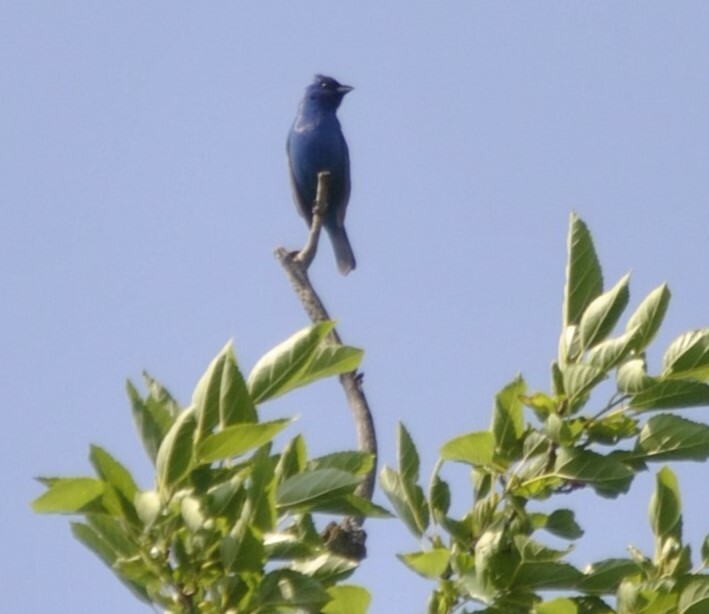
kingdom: Animalia
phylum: Chordata
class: Aves
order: Passeriformes
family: Cardinalidae
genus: Passerina
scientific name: Passerina cyanea
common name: Indigo bunting
